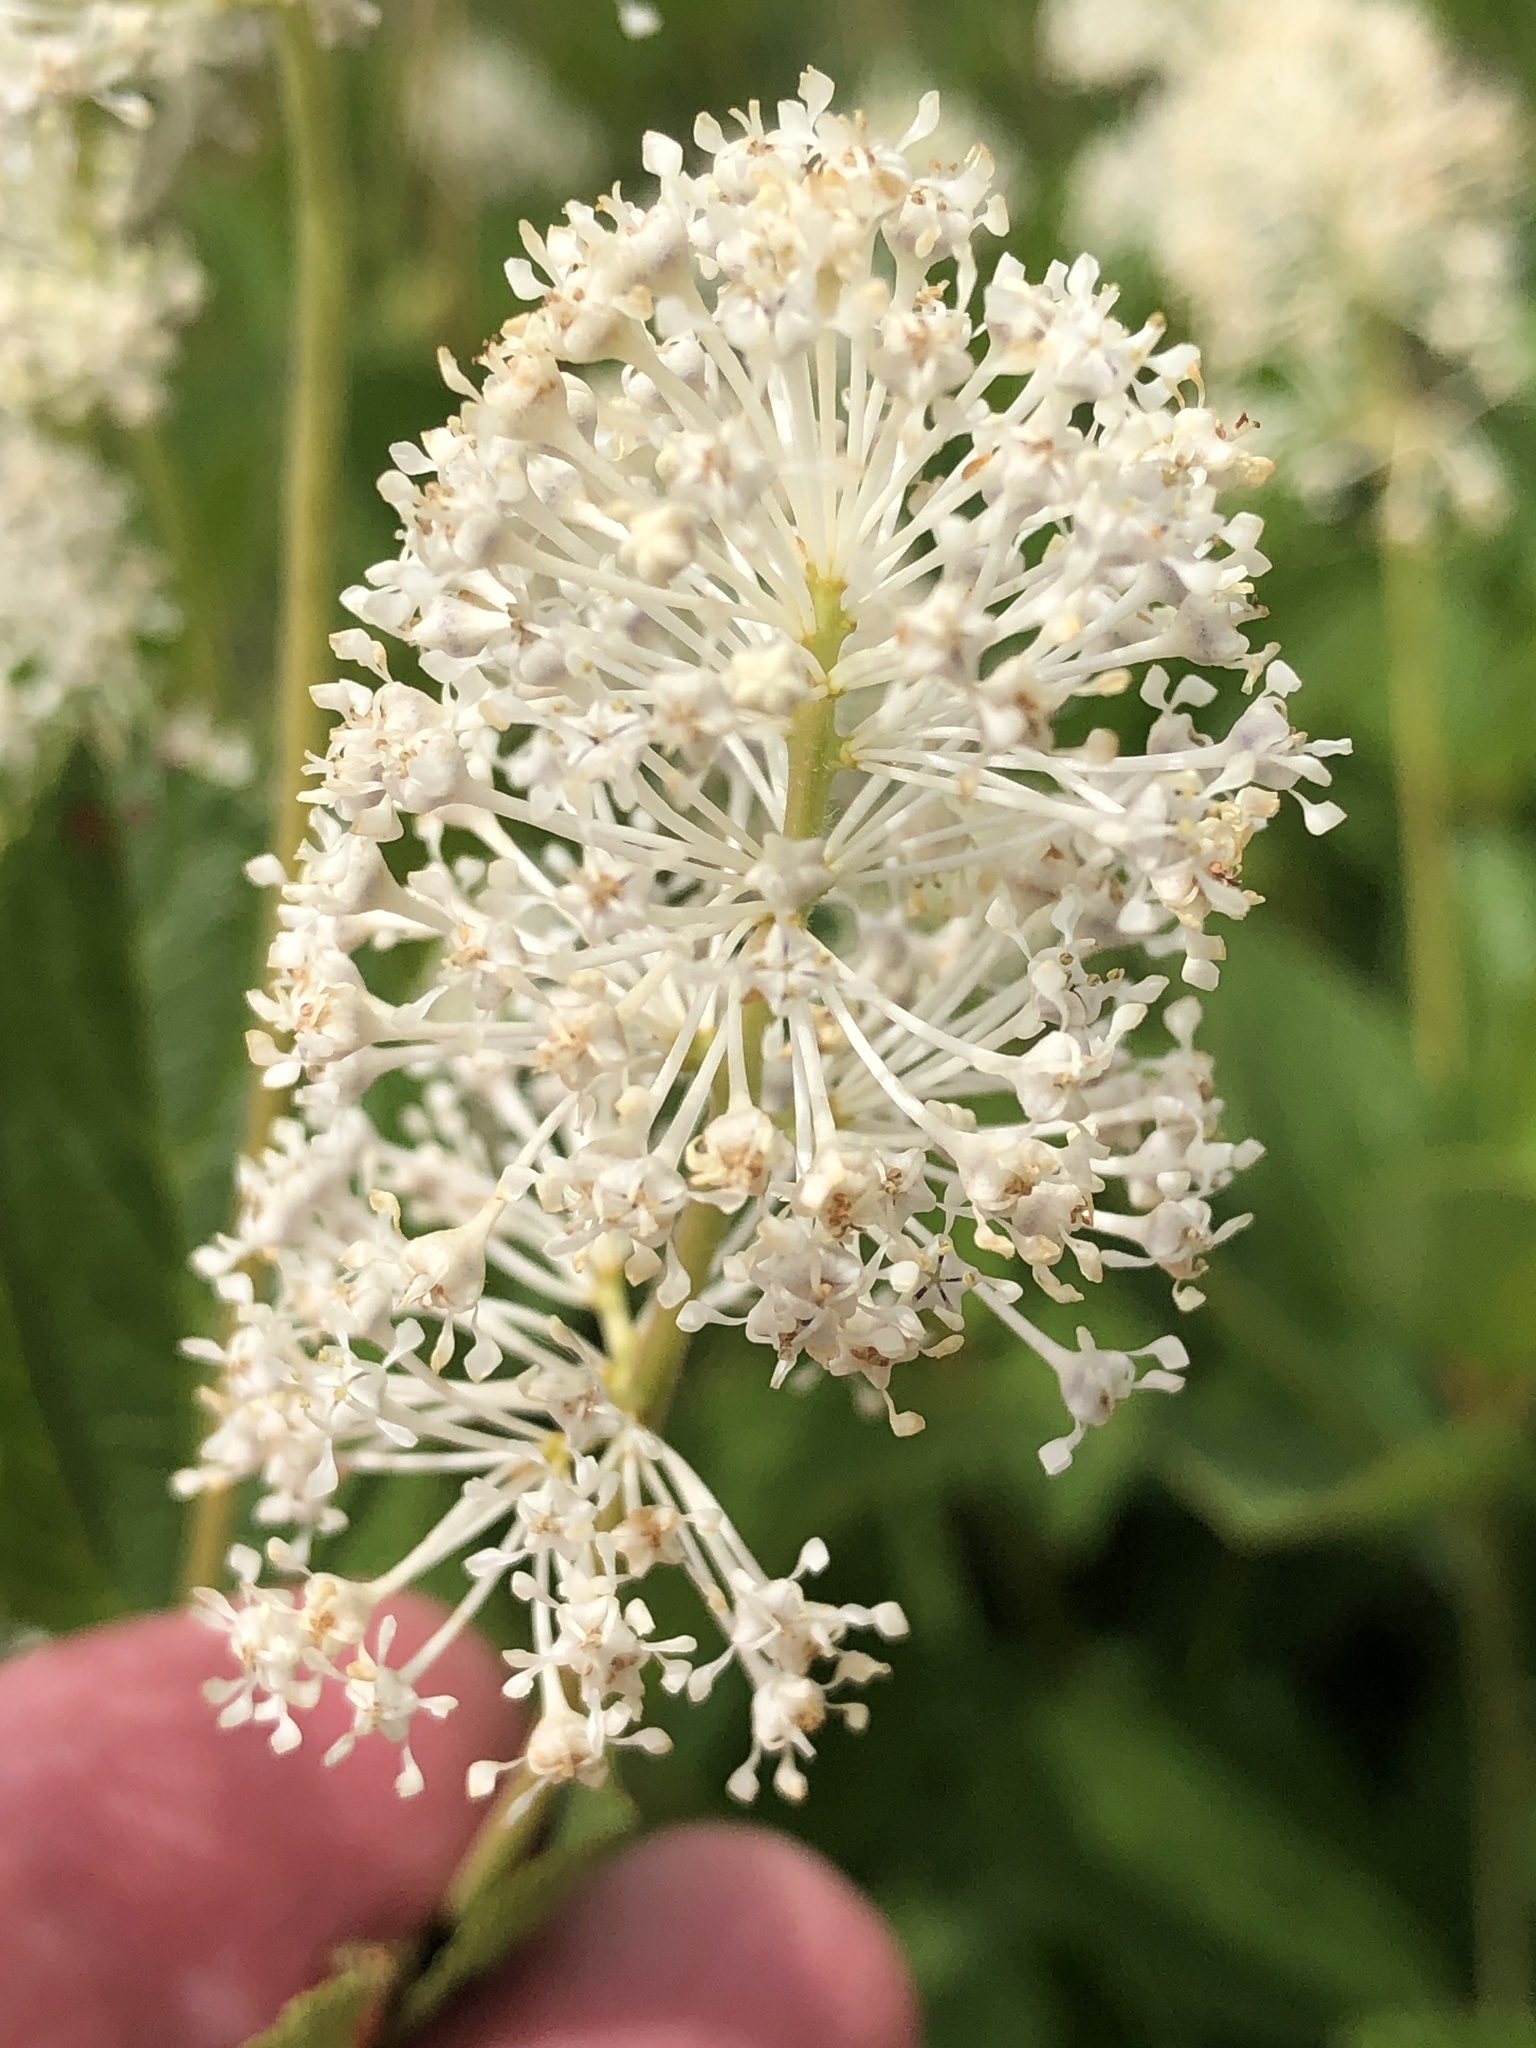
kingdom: Plantae
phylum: Tracheophyta
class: Magnoliopsida
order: Rosales
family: Rhamnaceae
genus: Ceanothus
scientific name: Ceanothus americanus
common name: Redroot
